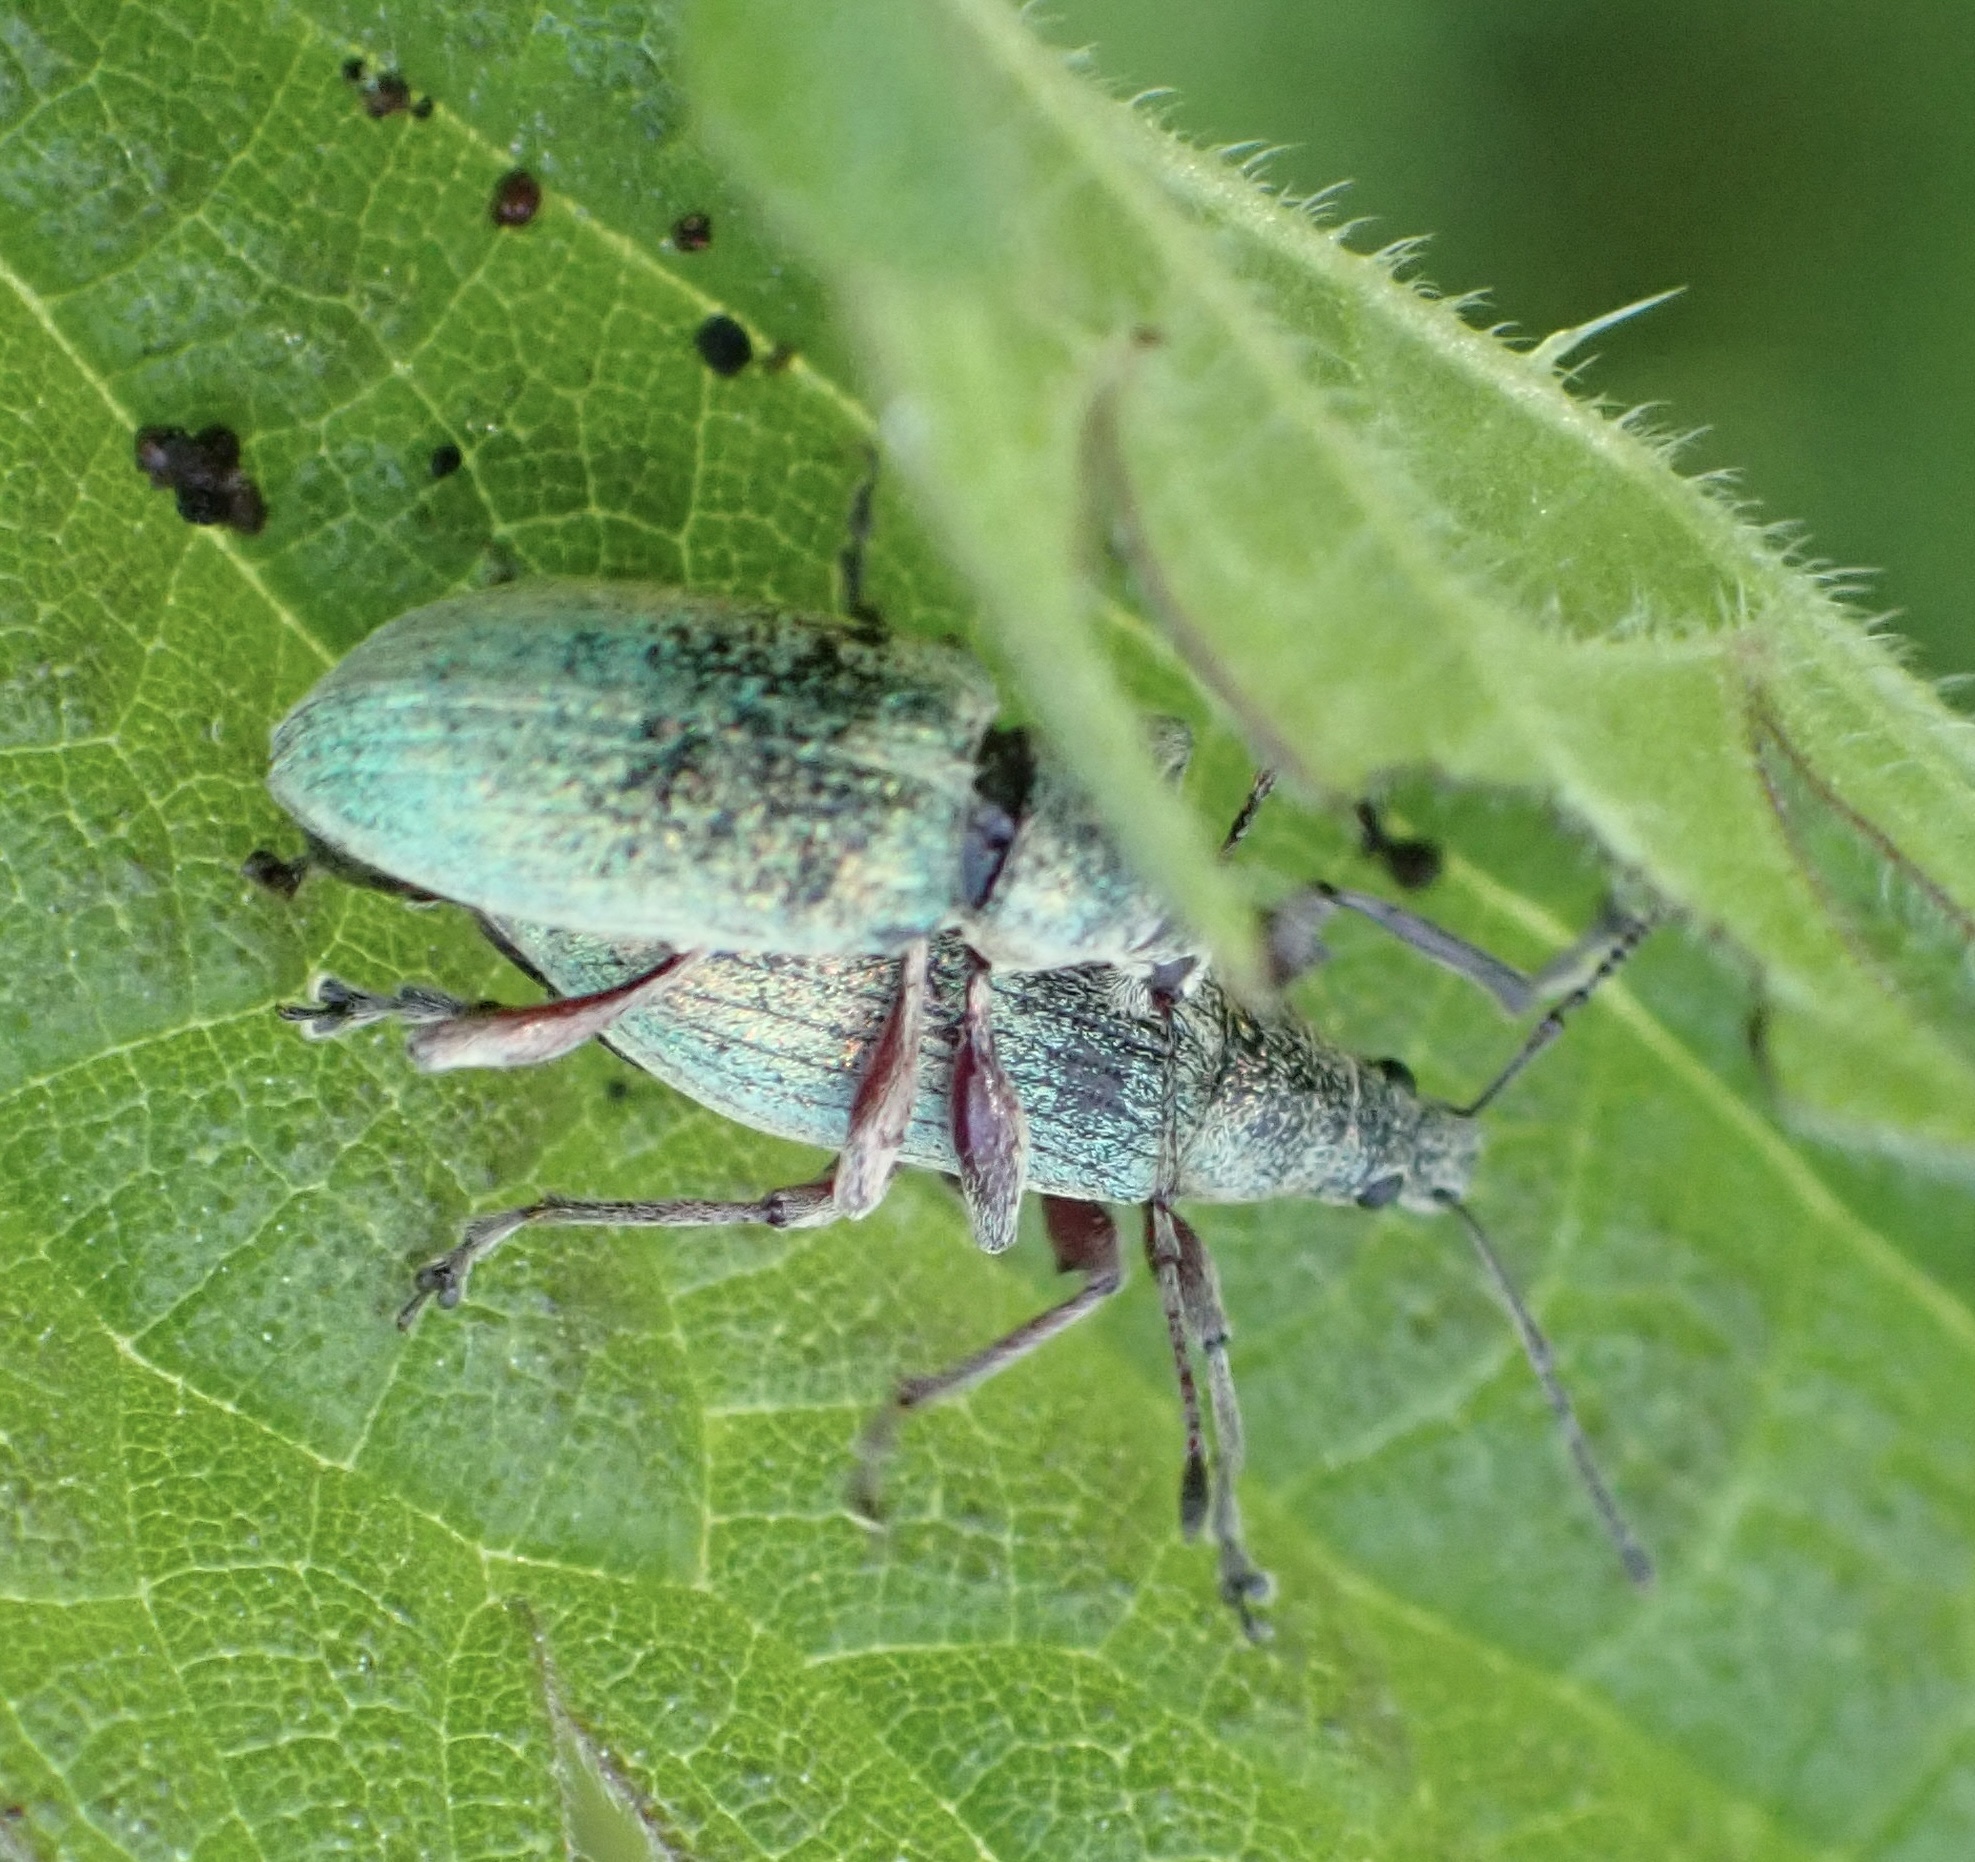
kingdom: Animalia
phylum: Arthropoda
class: Insecta
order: Coleoptera
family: Curculionidae
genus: Phyllobius
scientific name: Phyllobius pomaceus
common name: Green nettle weevil
